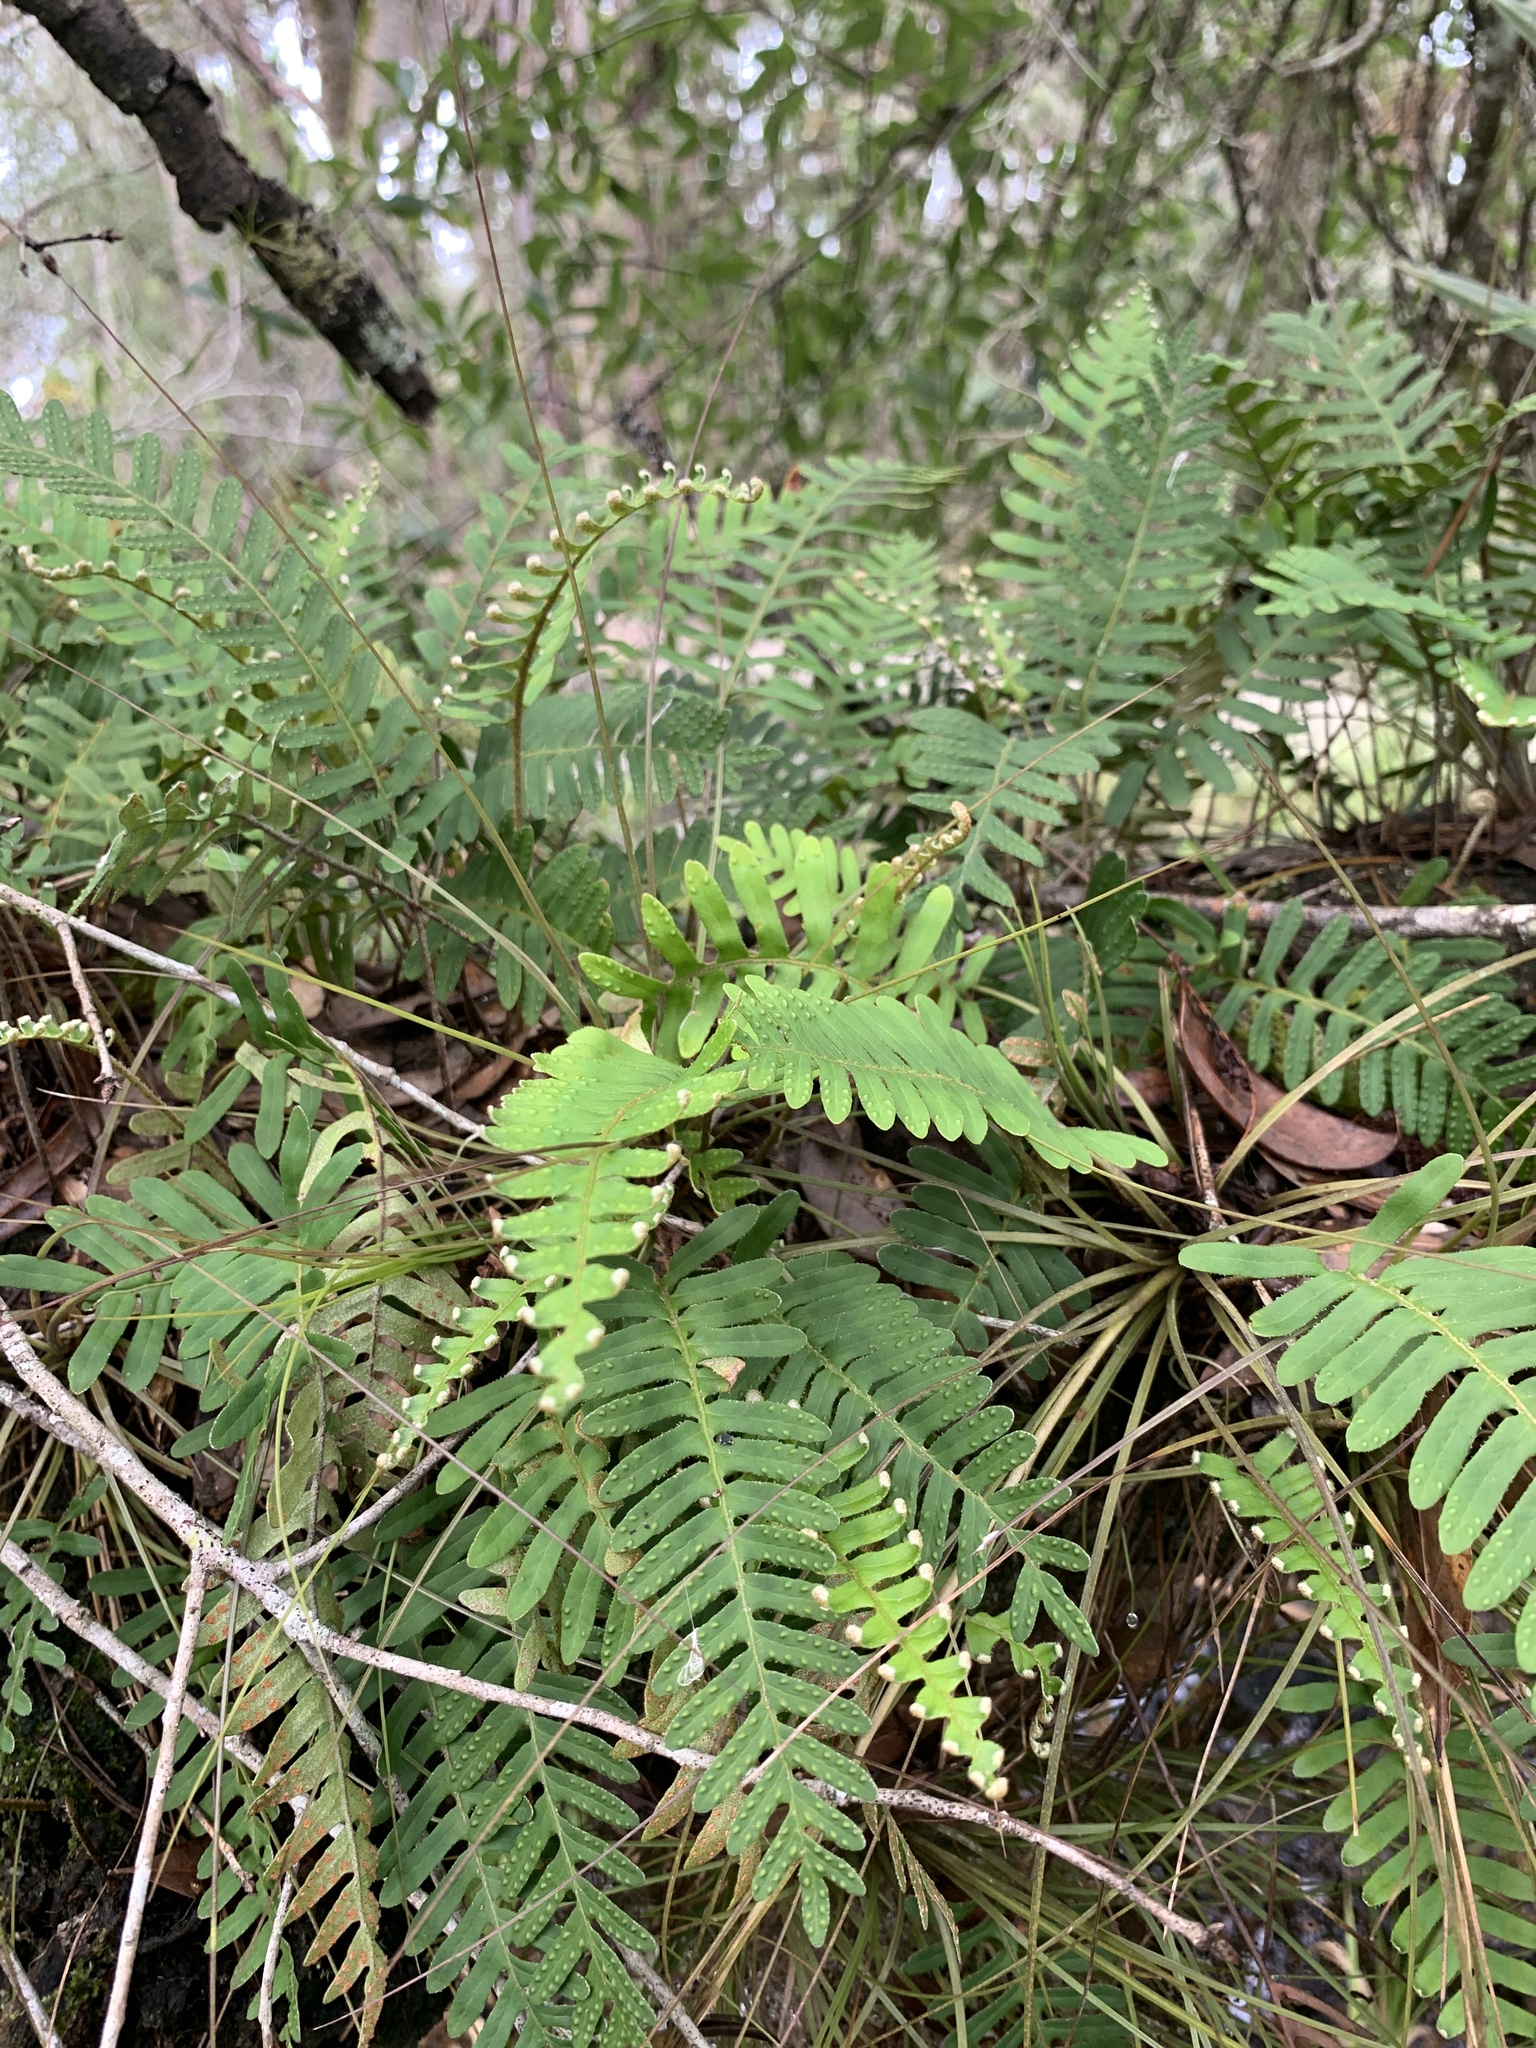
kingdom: Plantae
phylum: Tracheophyta
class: Polypodiopsida
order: Polypodiales
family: Polypodiaceae
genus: Pleopeltis
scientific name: Pleopeltis michauxiana
